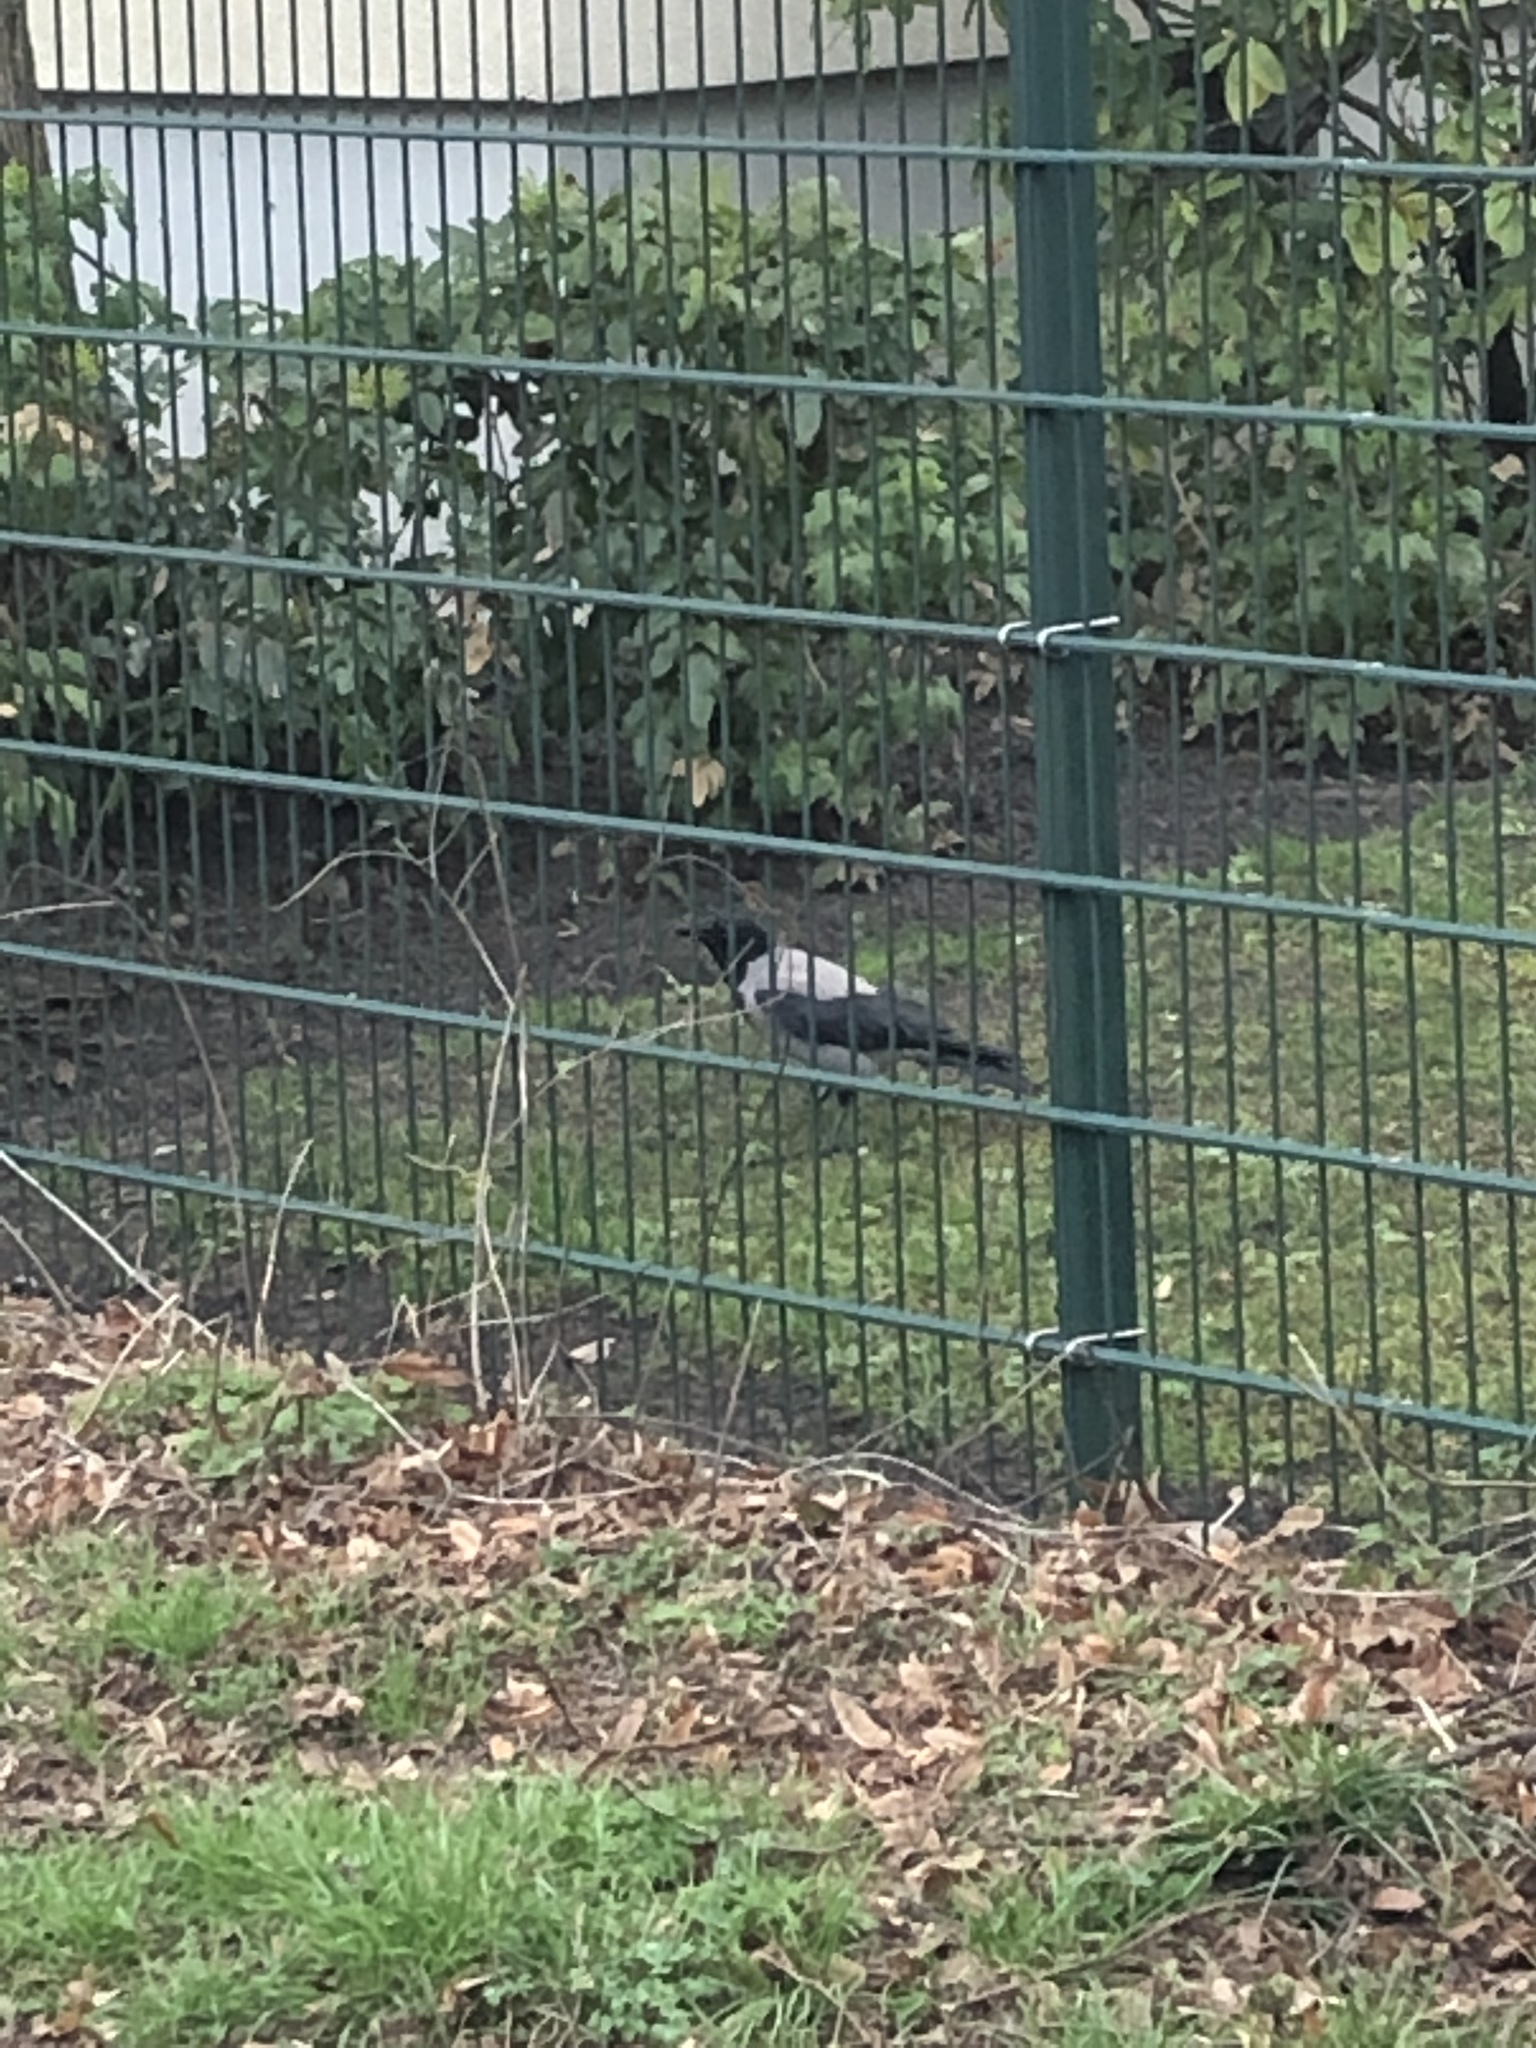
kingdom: Animalia
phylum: Chordata
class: Aves
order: Passeriformes
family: Corvidae
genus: Corvus
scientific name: Corvus cornix
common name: Hooded crow
